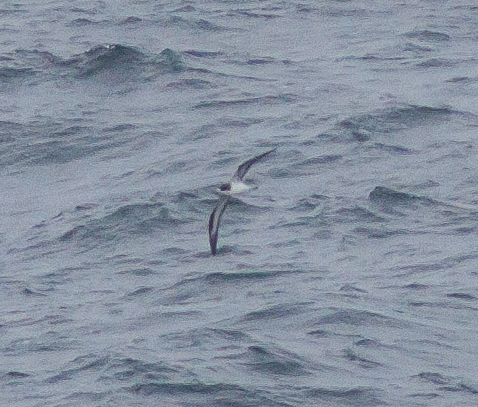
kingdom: Animalia
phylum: Chordata
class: Aves
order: Procellariiformes
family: Procellariidae
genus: Pterodroma
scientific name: Pterodroma sandwichensis
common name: Hawaiian petrel
